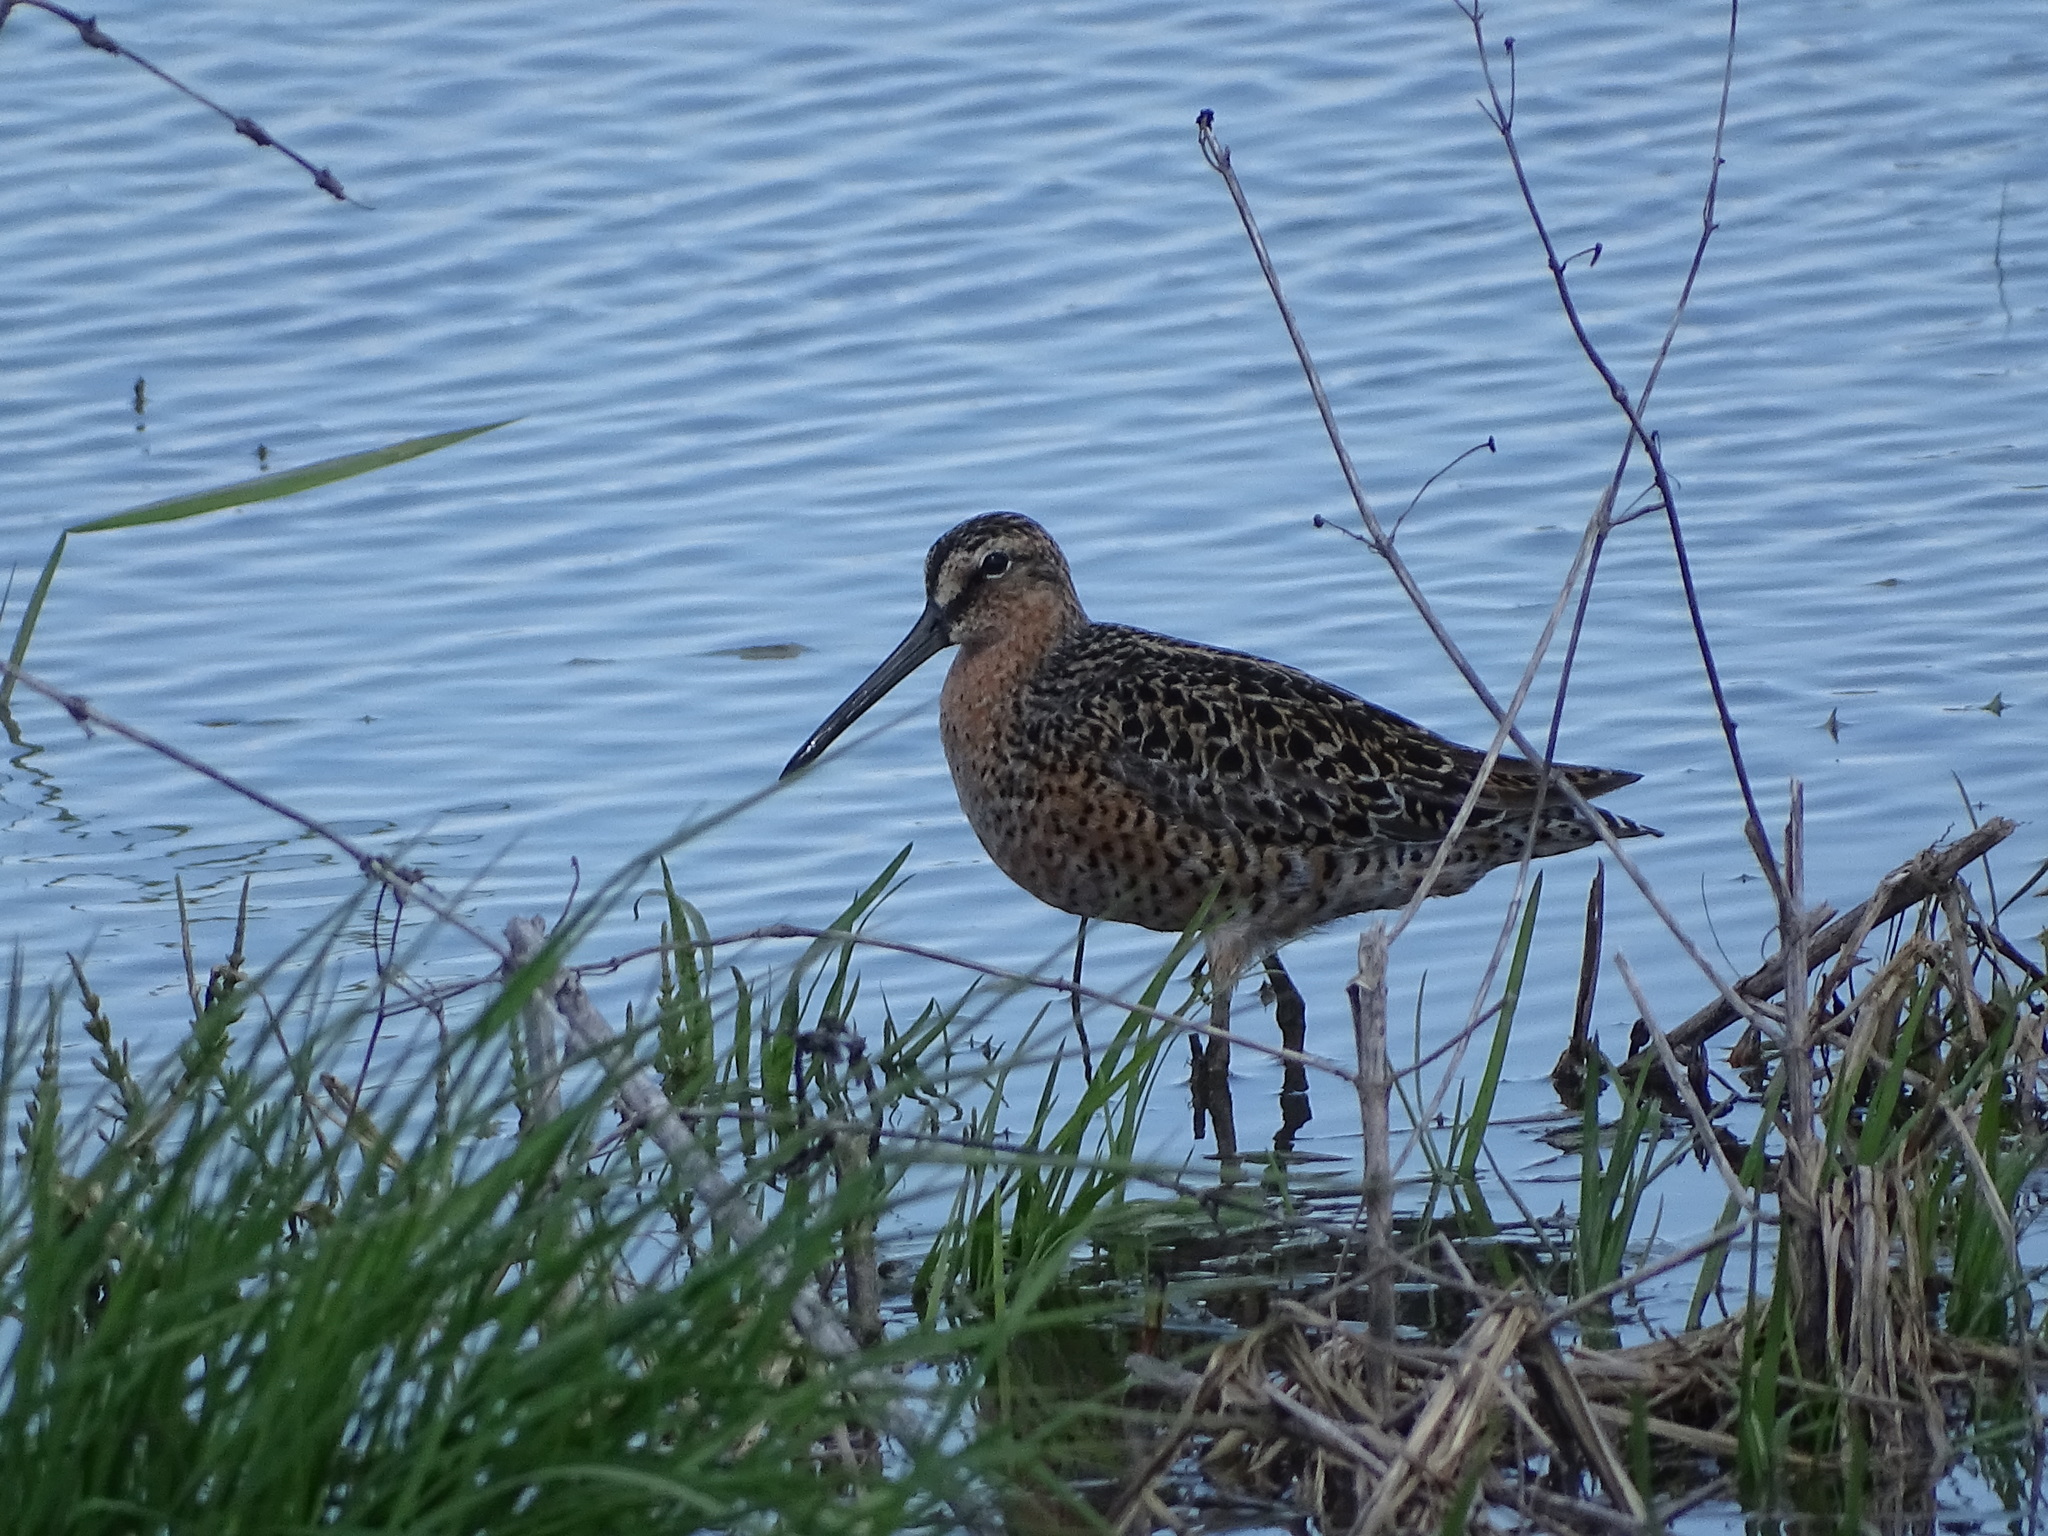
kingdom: Animalia
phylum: Chordata
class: Aves
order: Charadriiformes
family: Scolopacidae
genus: Limnodromus
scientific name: Limnodromus griseus
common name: Short-billed dowitcher
